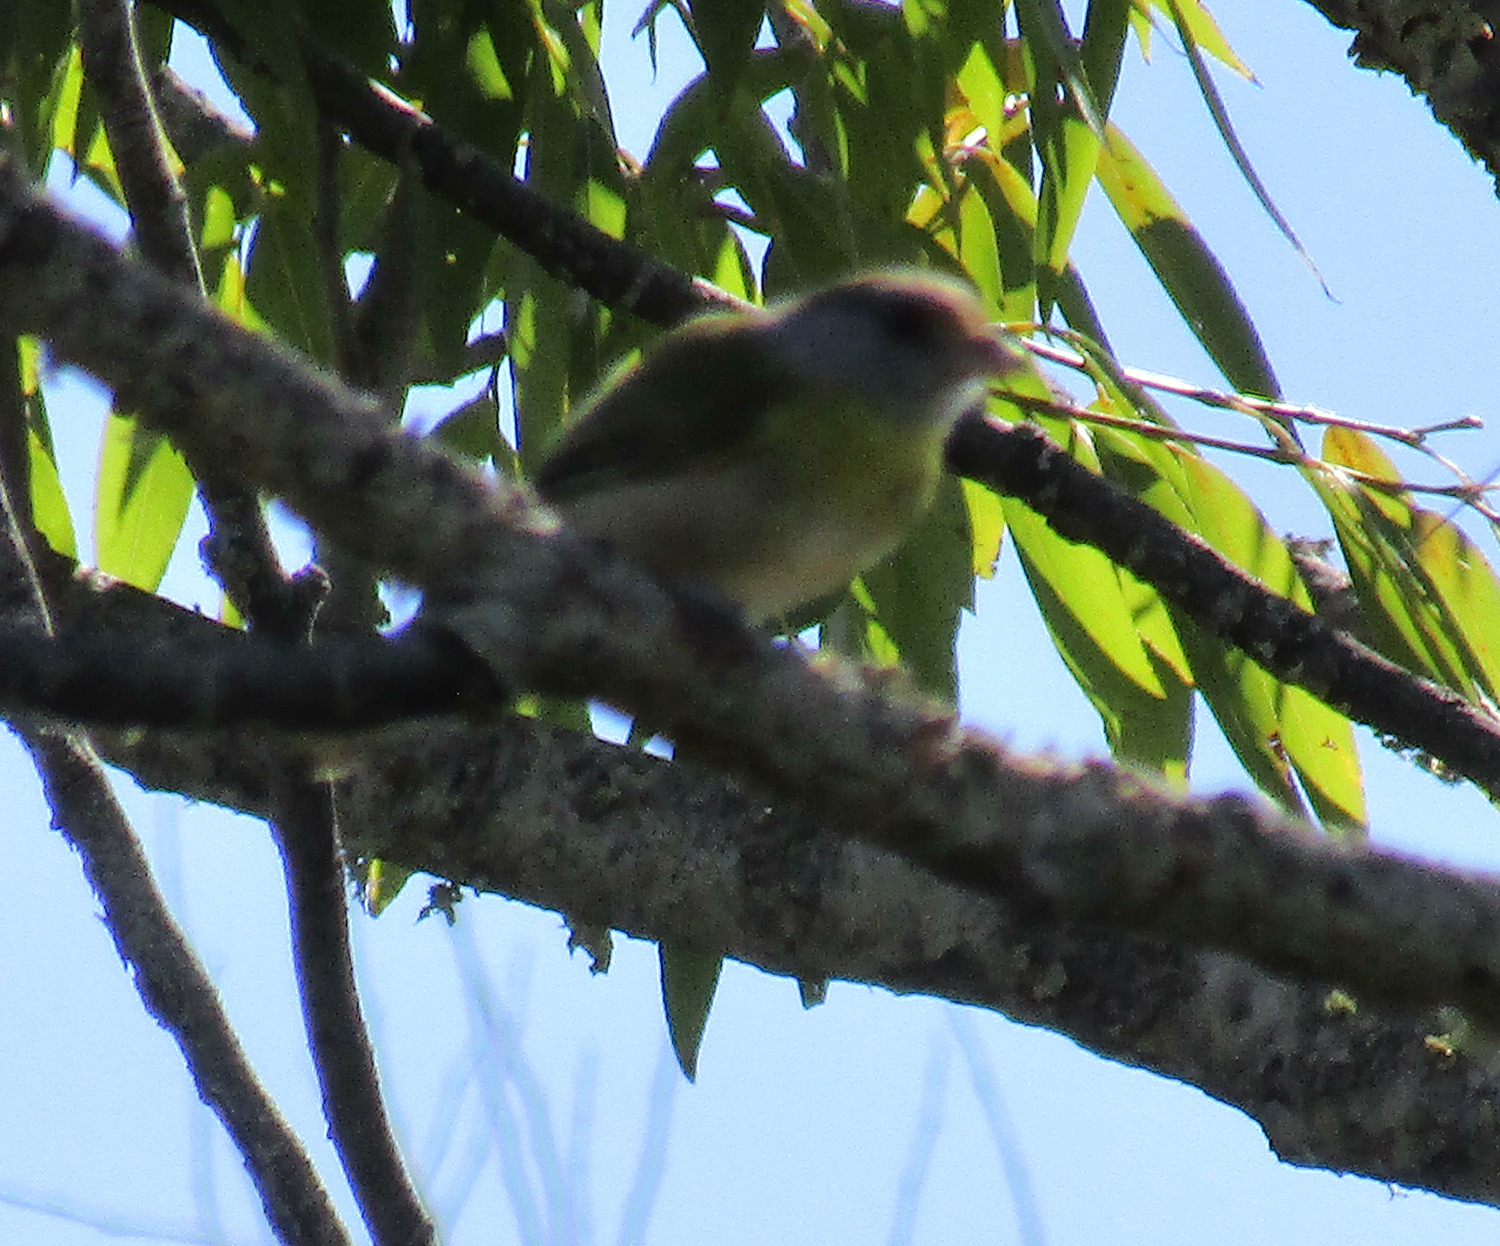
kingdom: Animalia
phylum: Chordata
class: Aves
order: Passeriformes
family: Vireonidae
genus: Cyclarhis
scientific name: Cyclarhis gujanensis
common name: Rufous-browed peppershrike
